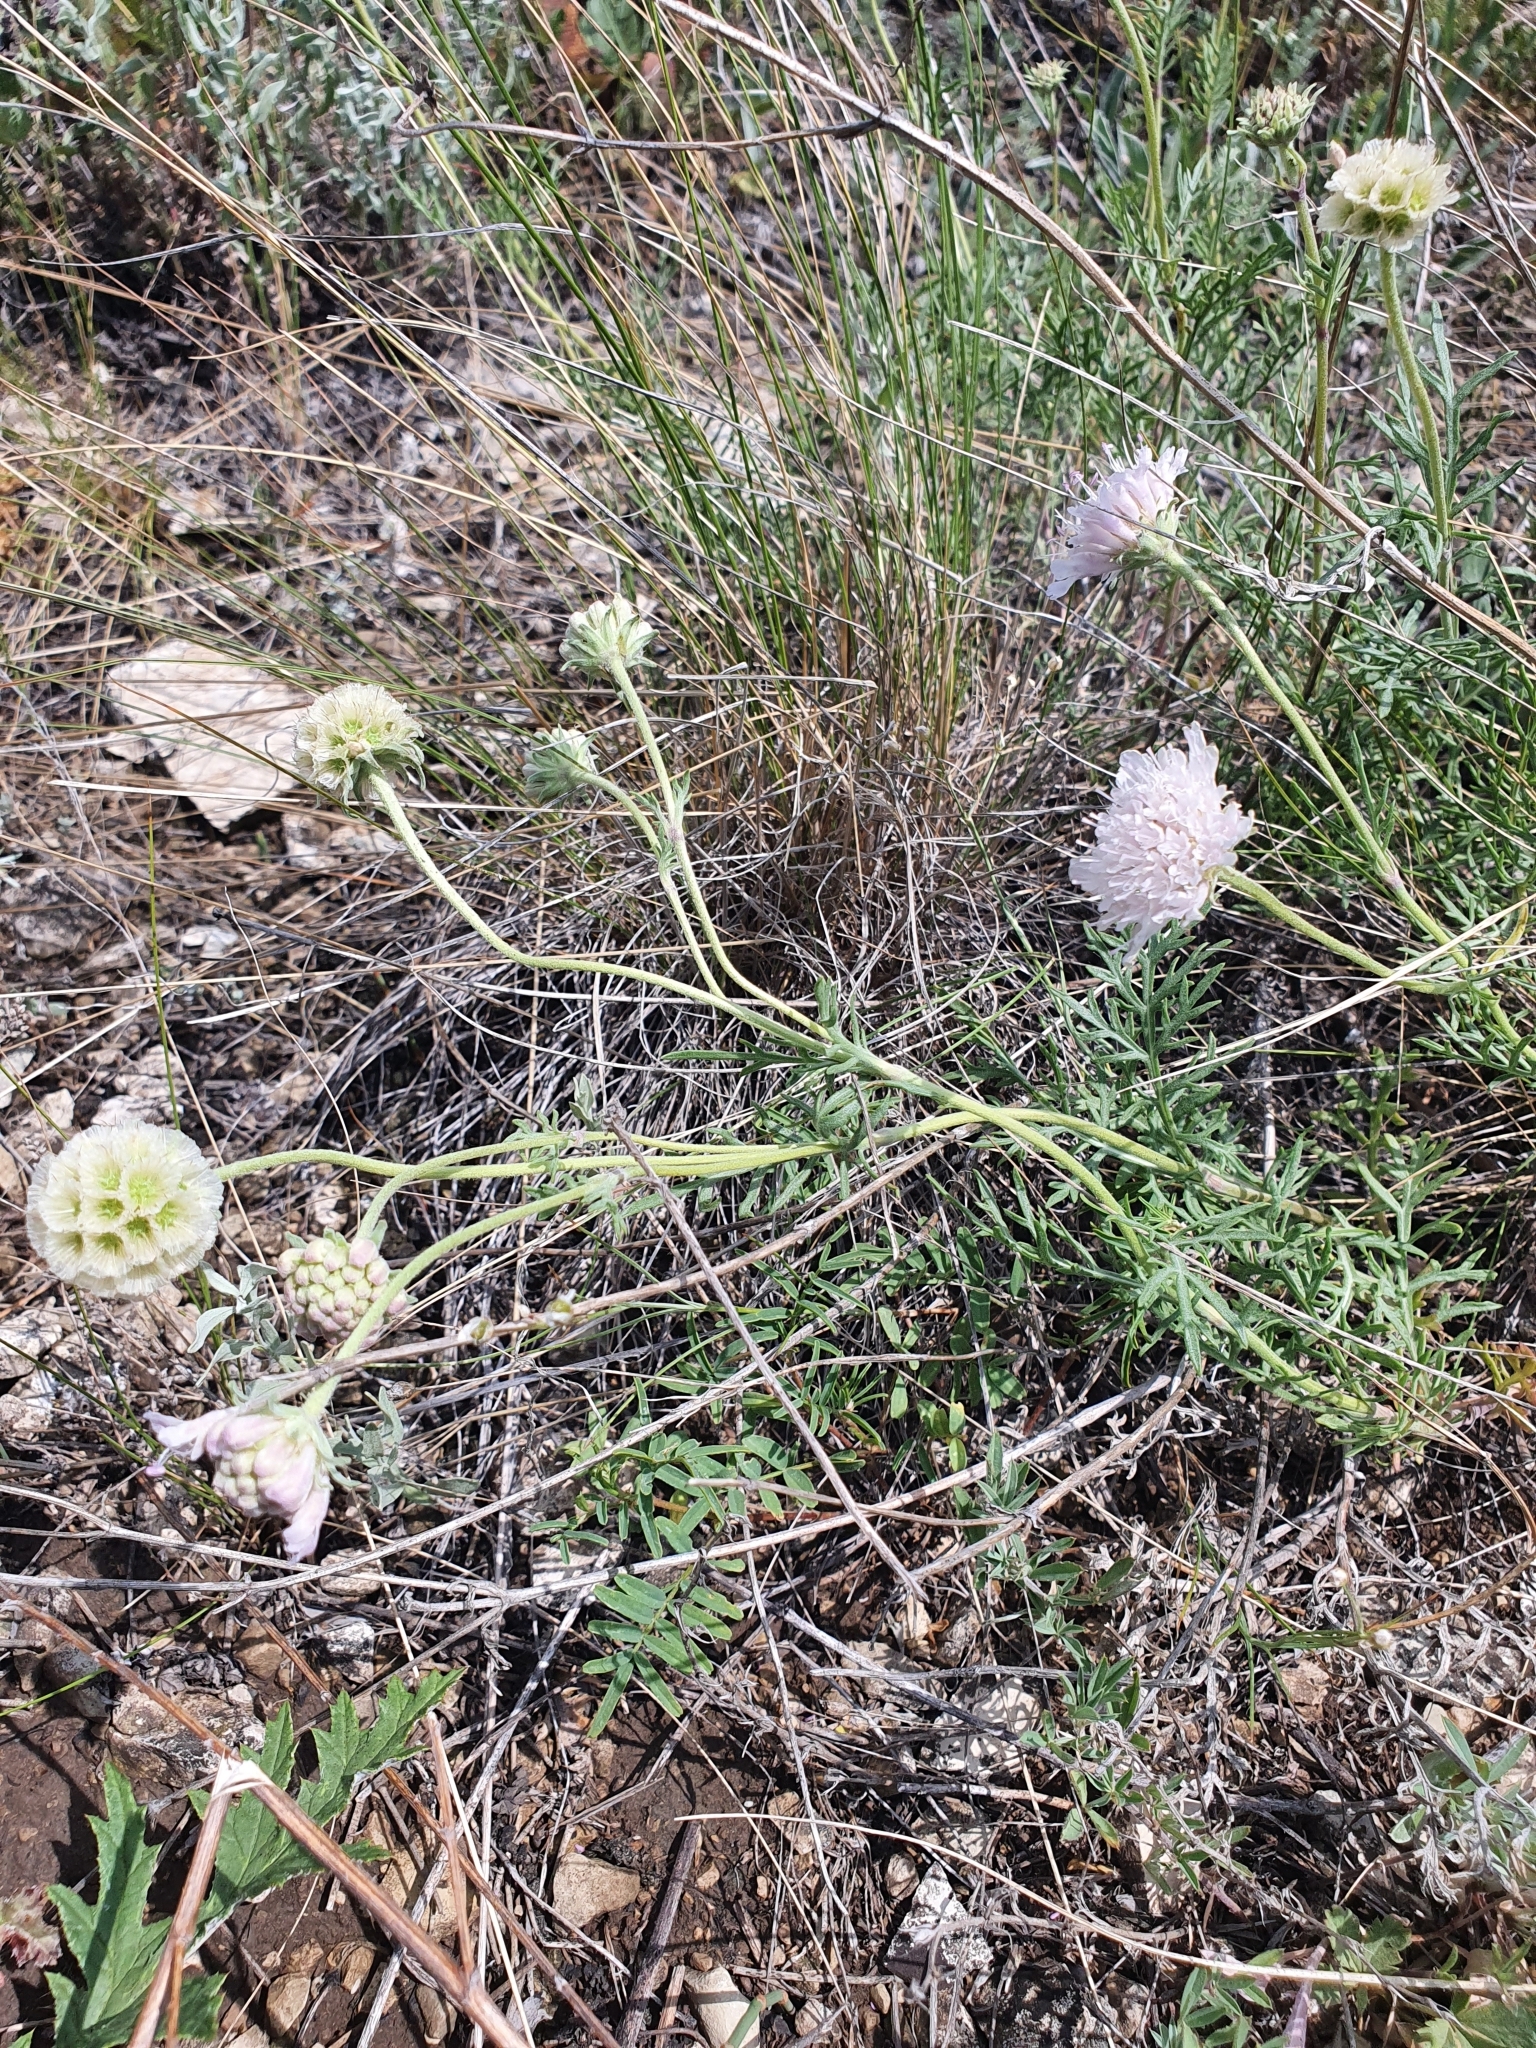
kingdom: Plantae
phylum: Tracheophyta
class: Magnoliopsida
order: Dipsacales
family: Caprifoliaceae
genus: Lomelosia
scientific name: Lomelosia isetensis
